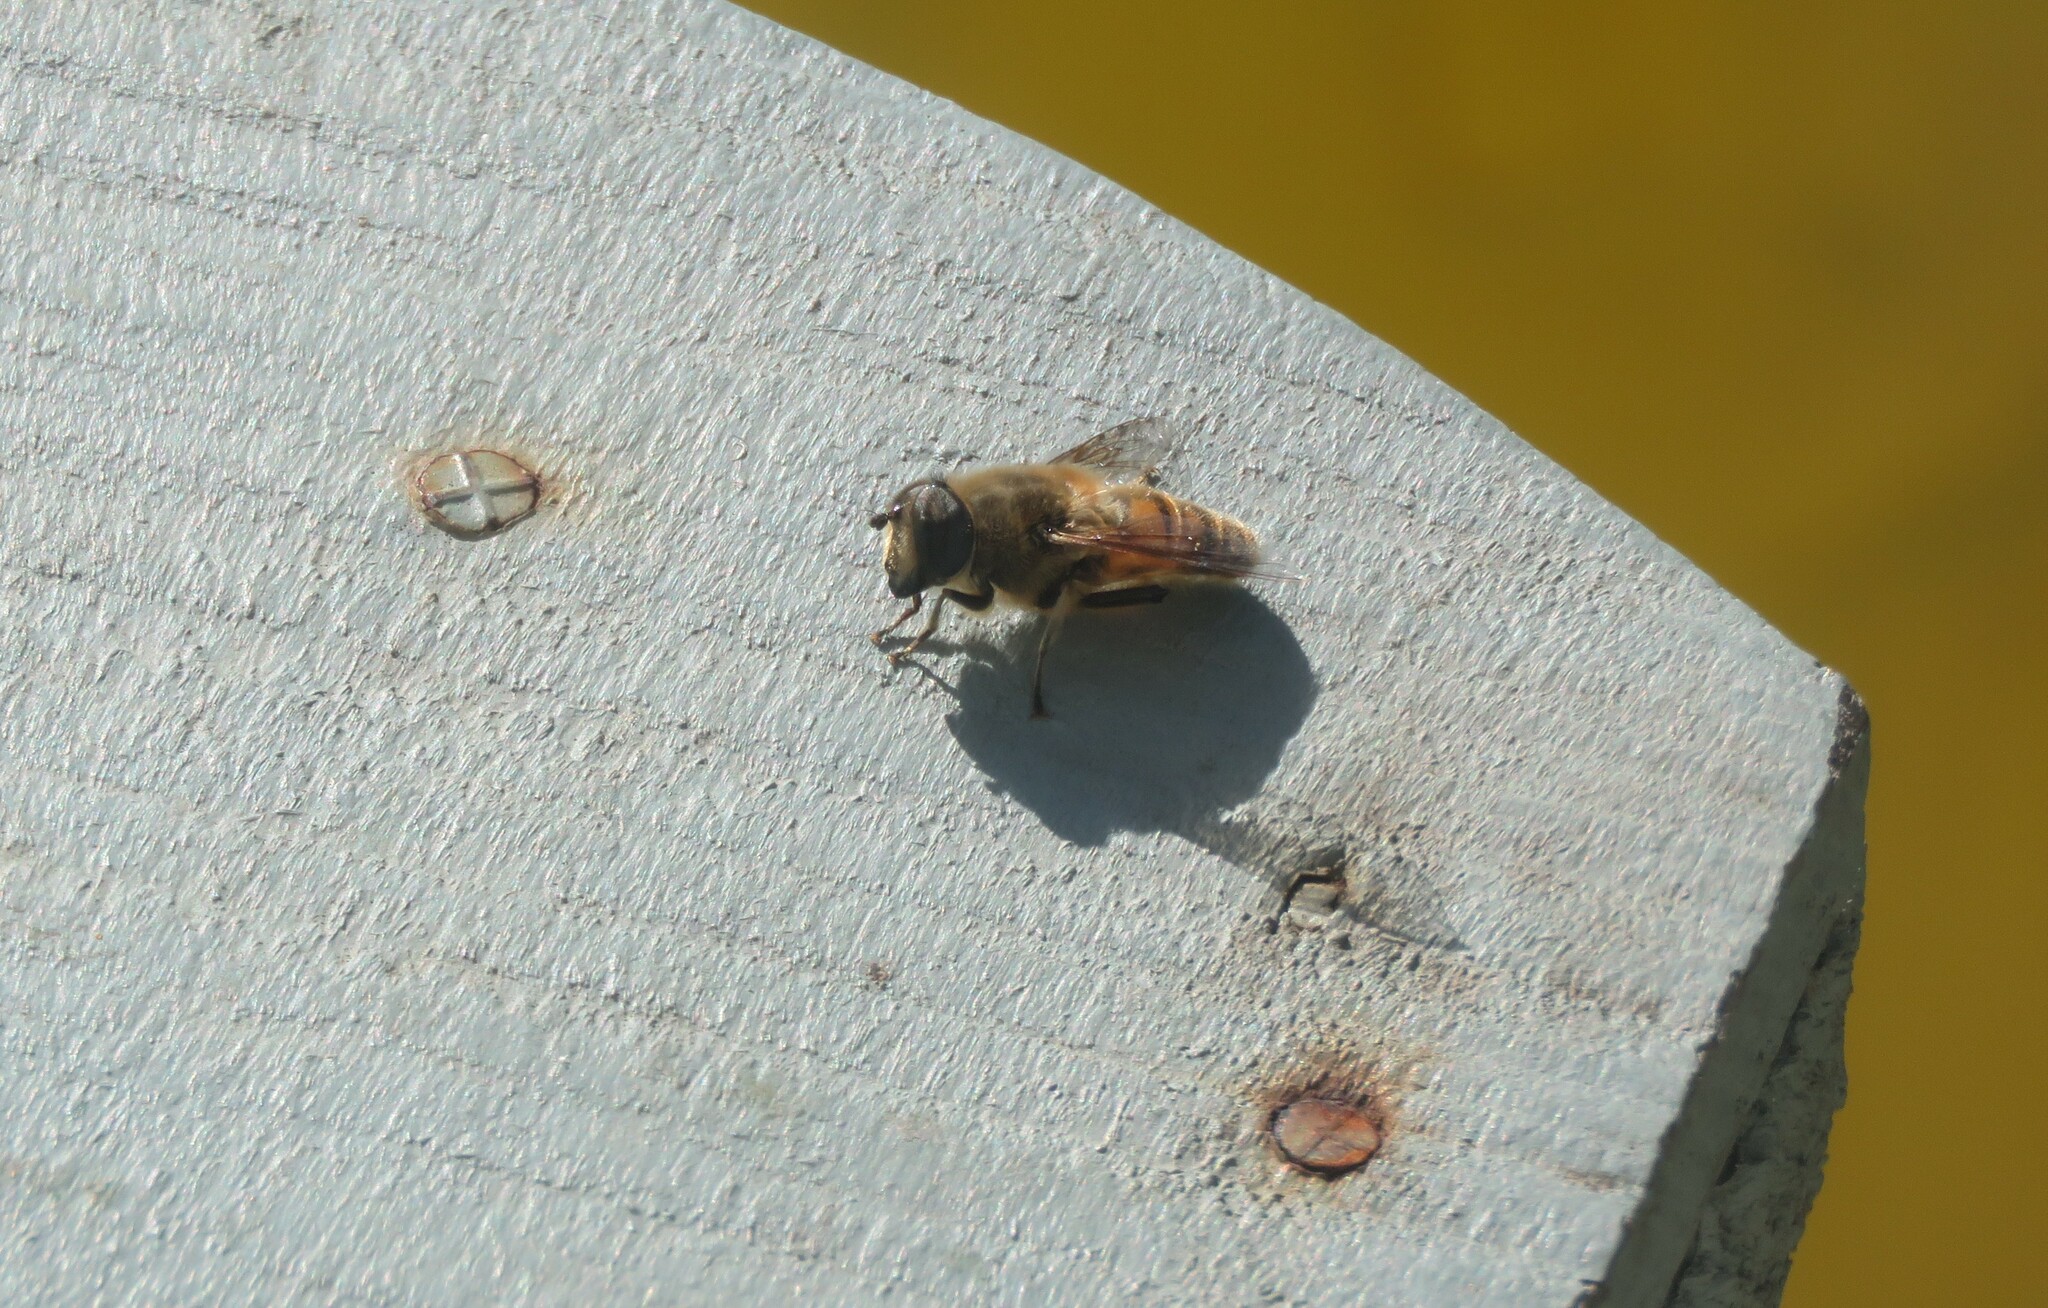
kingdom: Animalia
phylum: Arthropoda
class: Insecta
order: Diptera
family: Syrphidae
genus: Eristalis
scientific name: Eristalis tenax
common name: Drone fly
